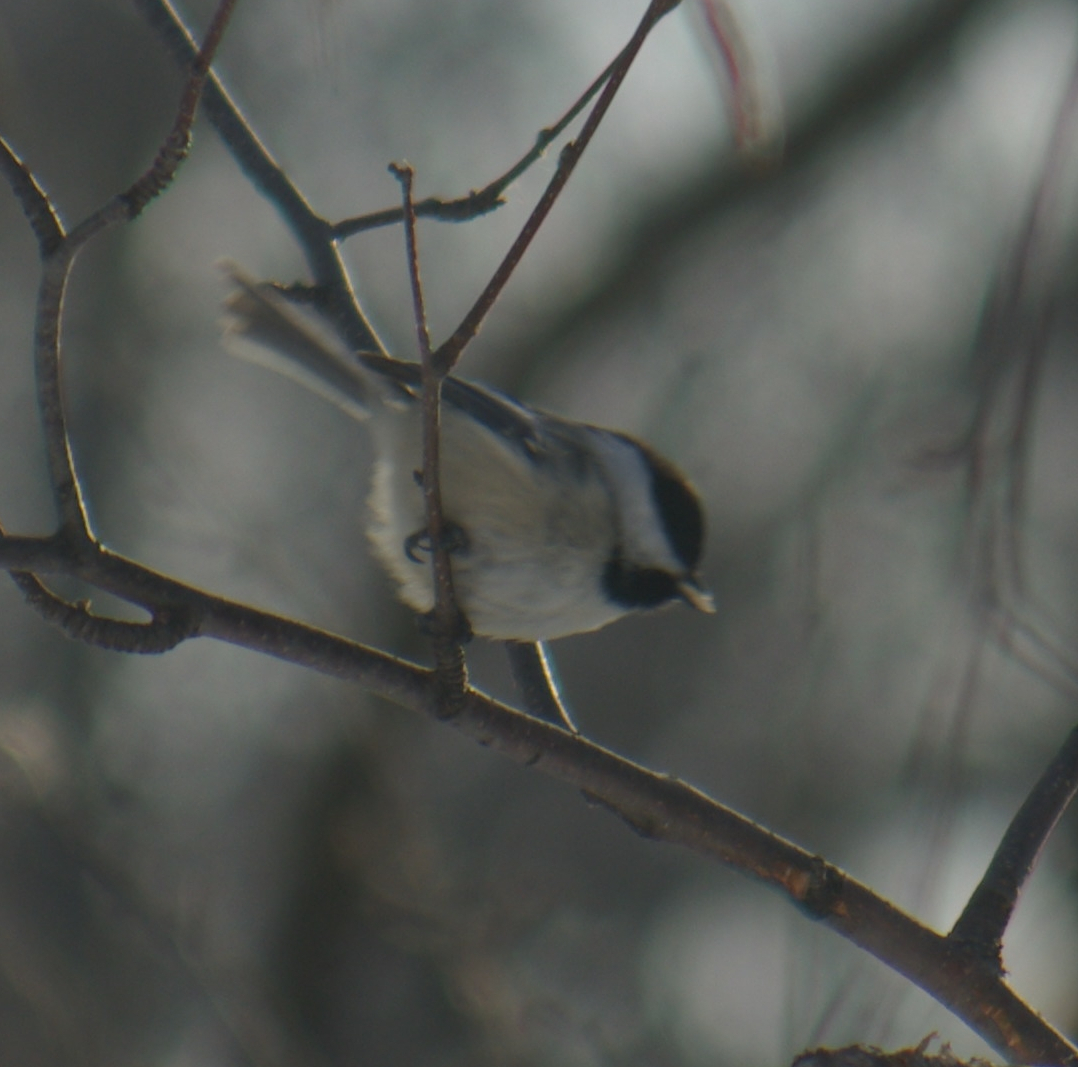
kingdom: Animalia
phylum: Chordata
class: Aves
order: Passeriformes
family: Paridae
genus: Poecile
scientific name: Poecile atricapillus
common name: Black-capped chickadee
